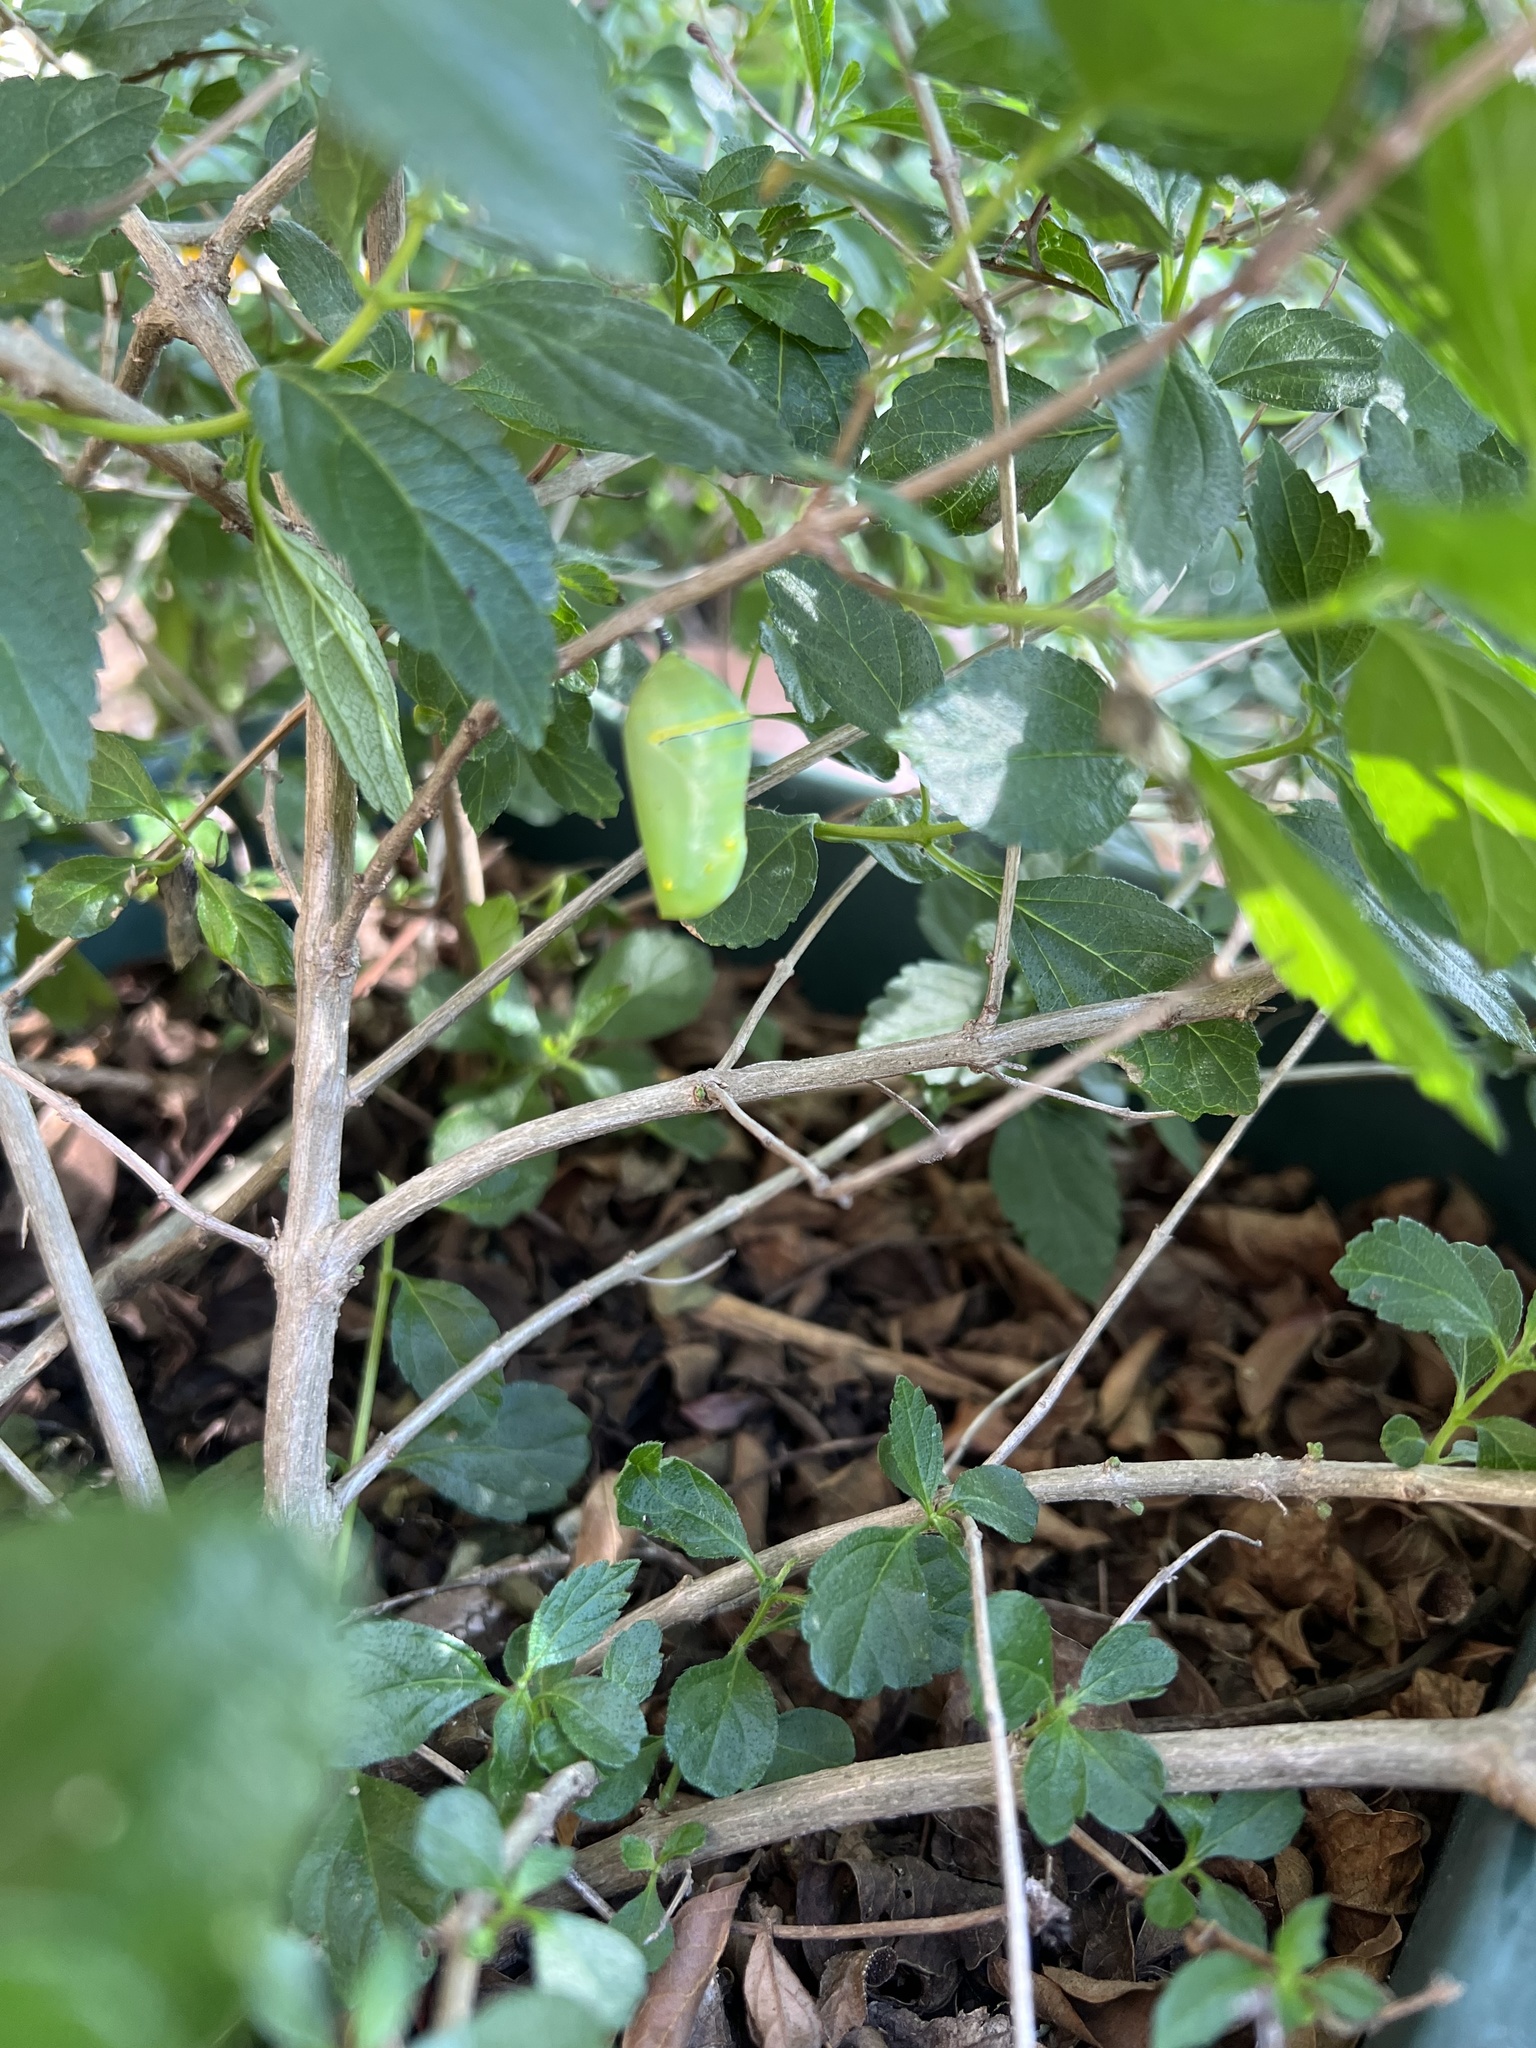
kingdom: Animalia
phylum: Arthropoda
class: Insecta
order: Lepidoptera
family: Nymphalidae
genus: Danaus
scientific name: Danaus plexippus
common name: Monarch
